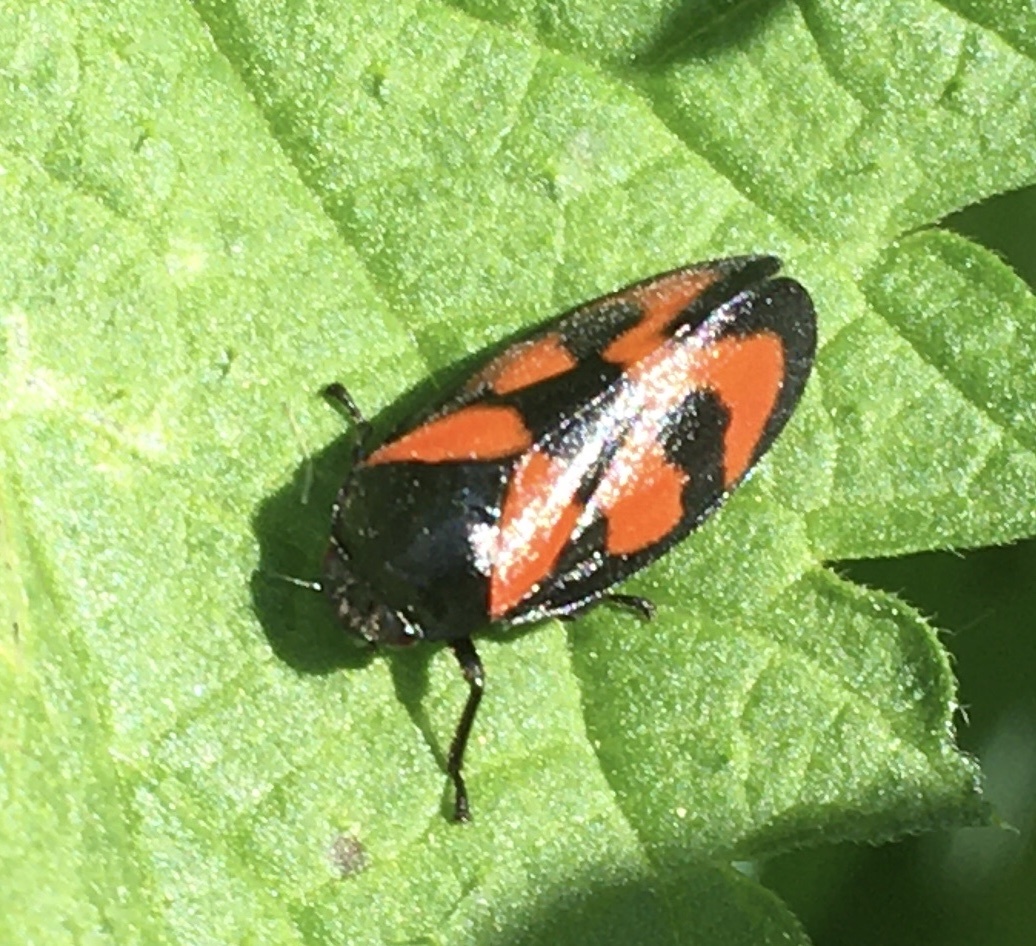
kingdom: Animalia
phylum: Arthropoda
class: Insecta
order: Hemiptera
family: Cercopidae
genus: Cercopis
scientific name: Cercopis vulnerata
